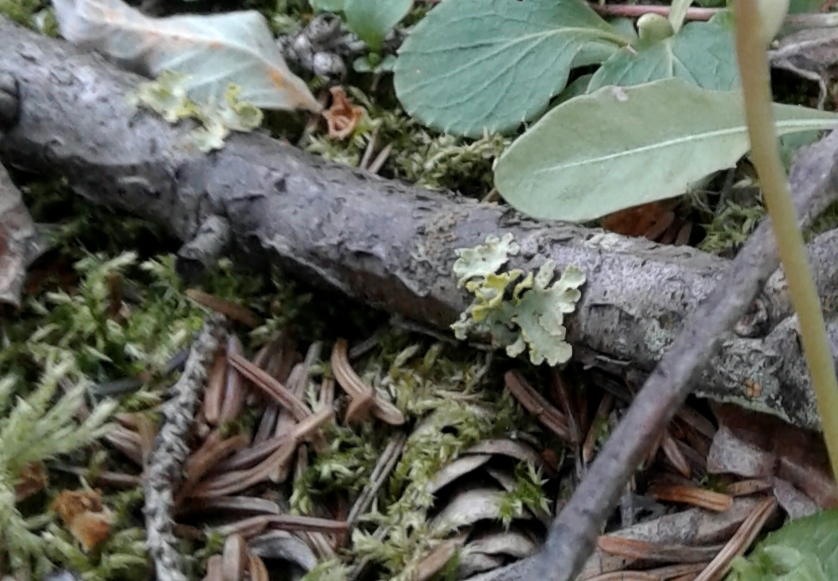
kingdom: Fungi
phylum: Ascomycota
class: Lecanoromycetes
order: Lecanorales
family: Parmeliaceae
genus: Vulpicida
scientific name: Vulpicida pinastri
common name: Powdered sunshine lichen
